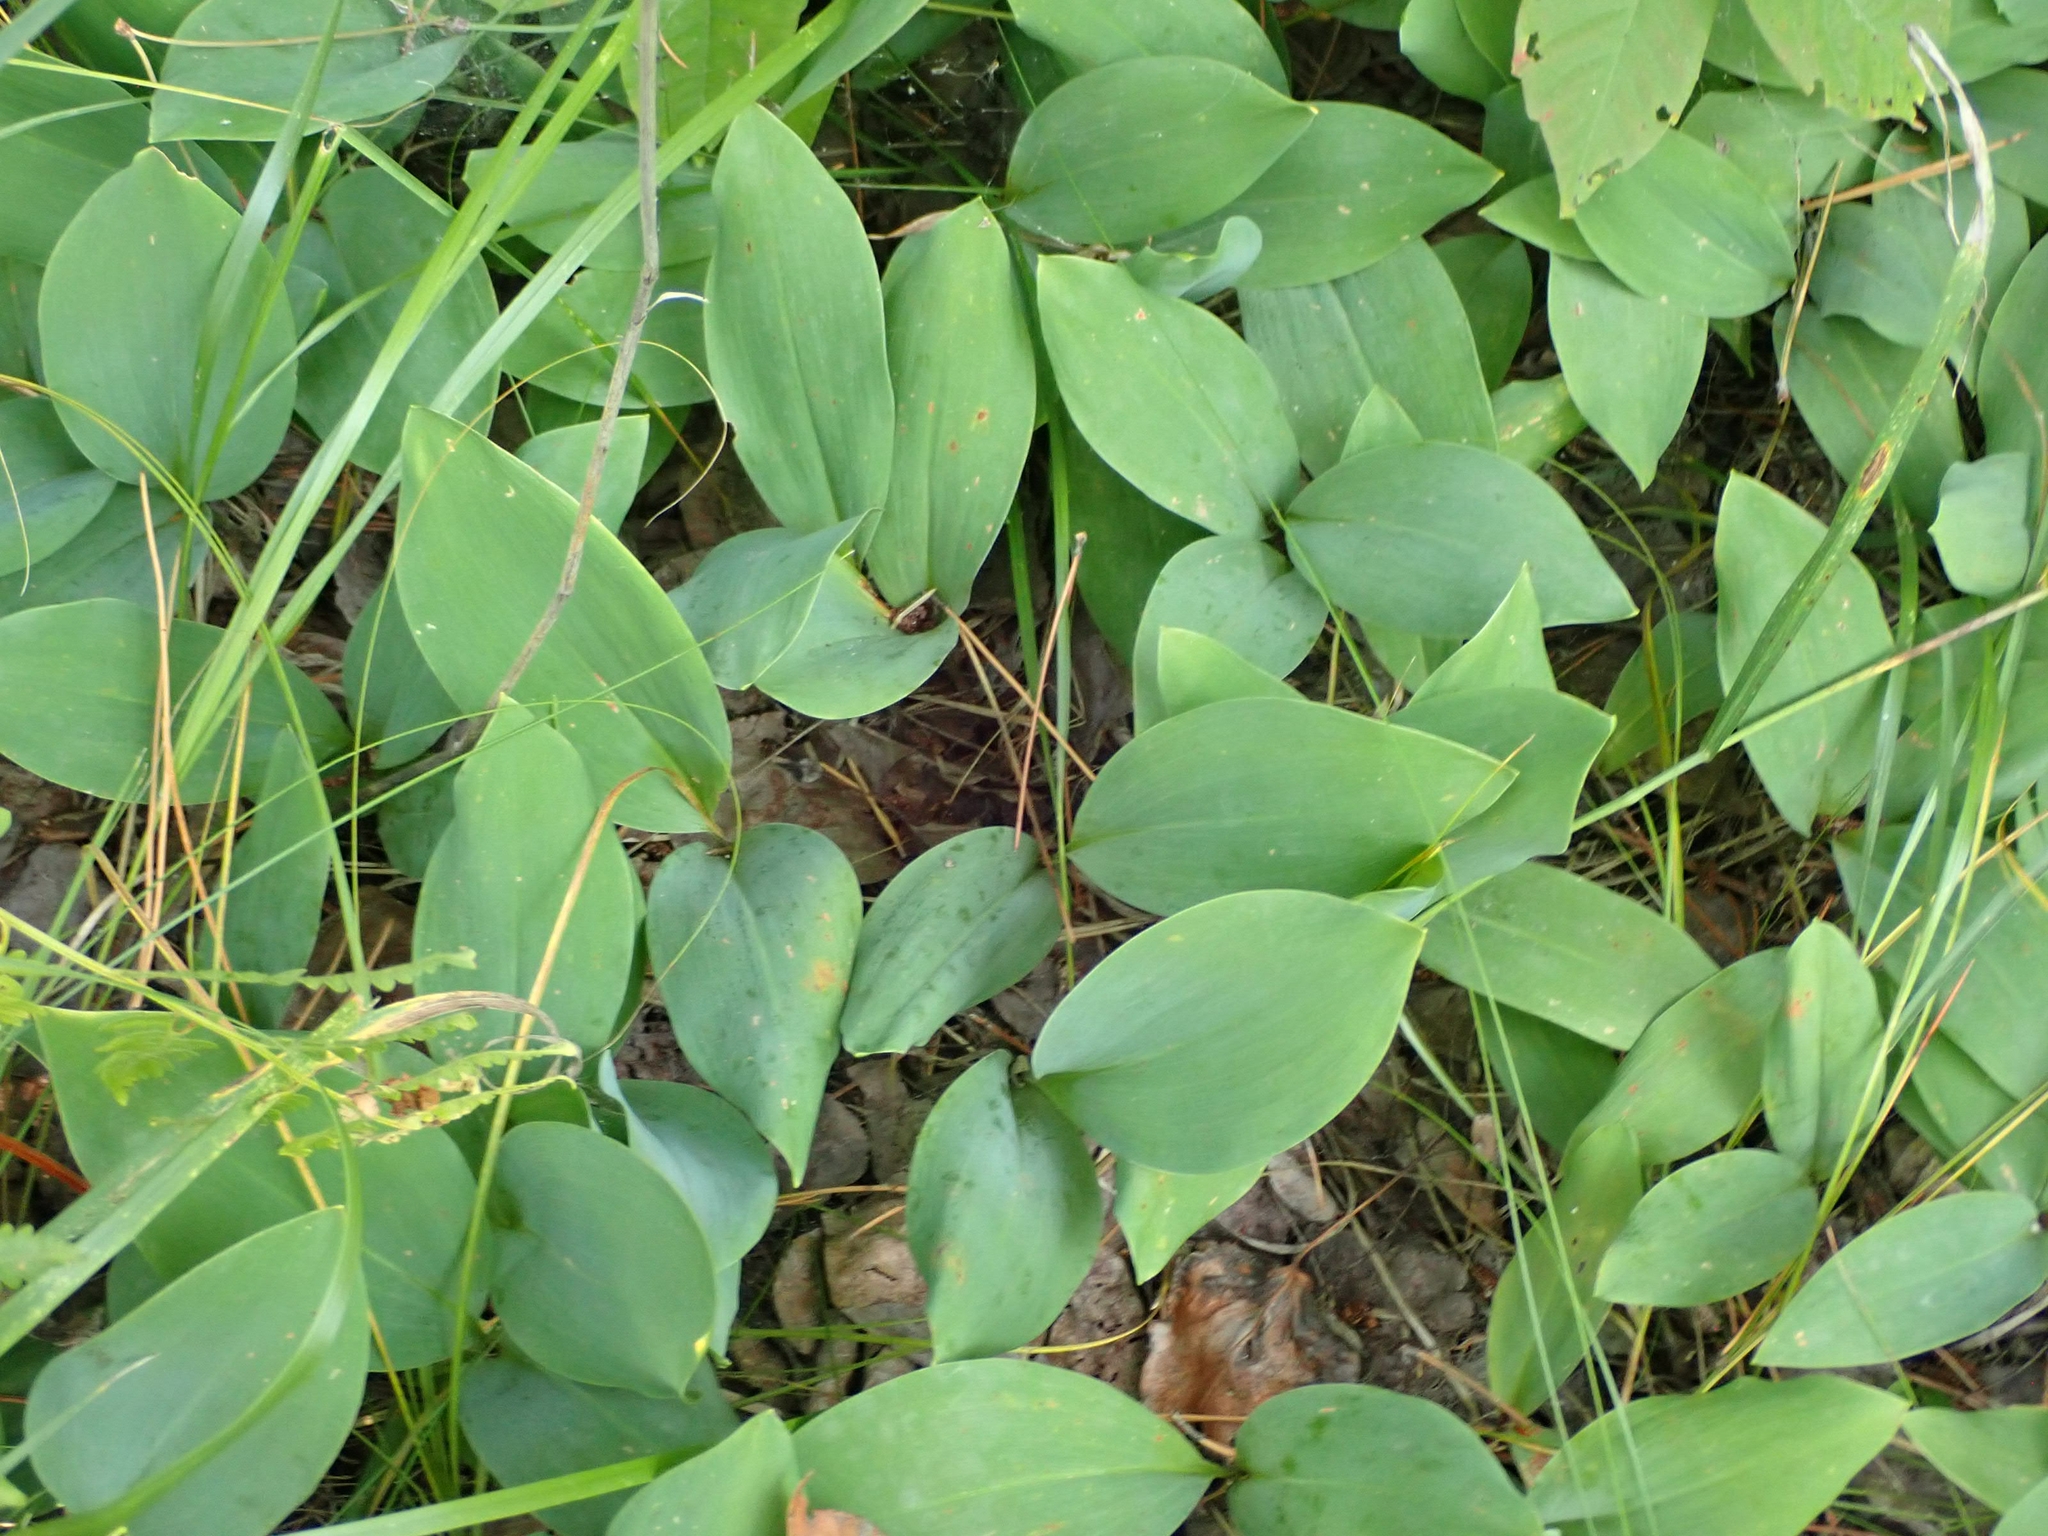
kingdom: Plantae
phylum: Tracheophyta
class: Liliopsida
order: Asparagales
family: Asparagaceae
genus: Convallaria
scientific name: Convallaria majalis
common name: Lily-of-the-valley
